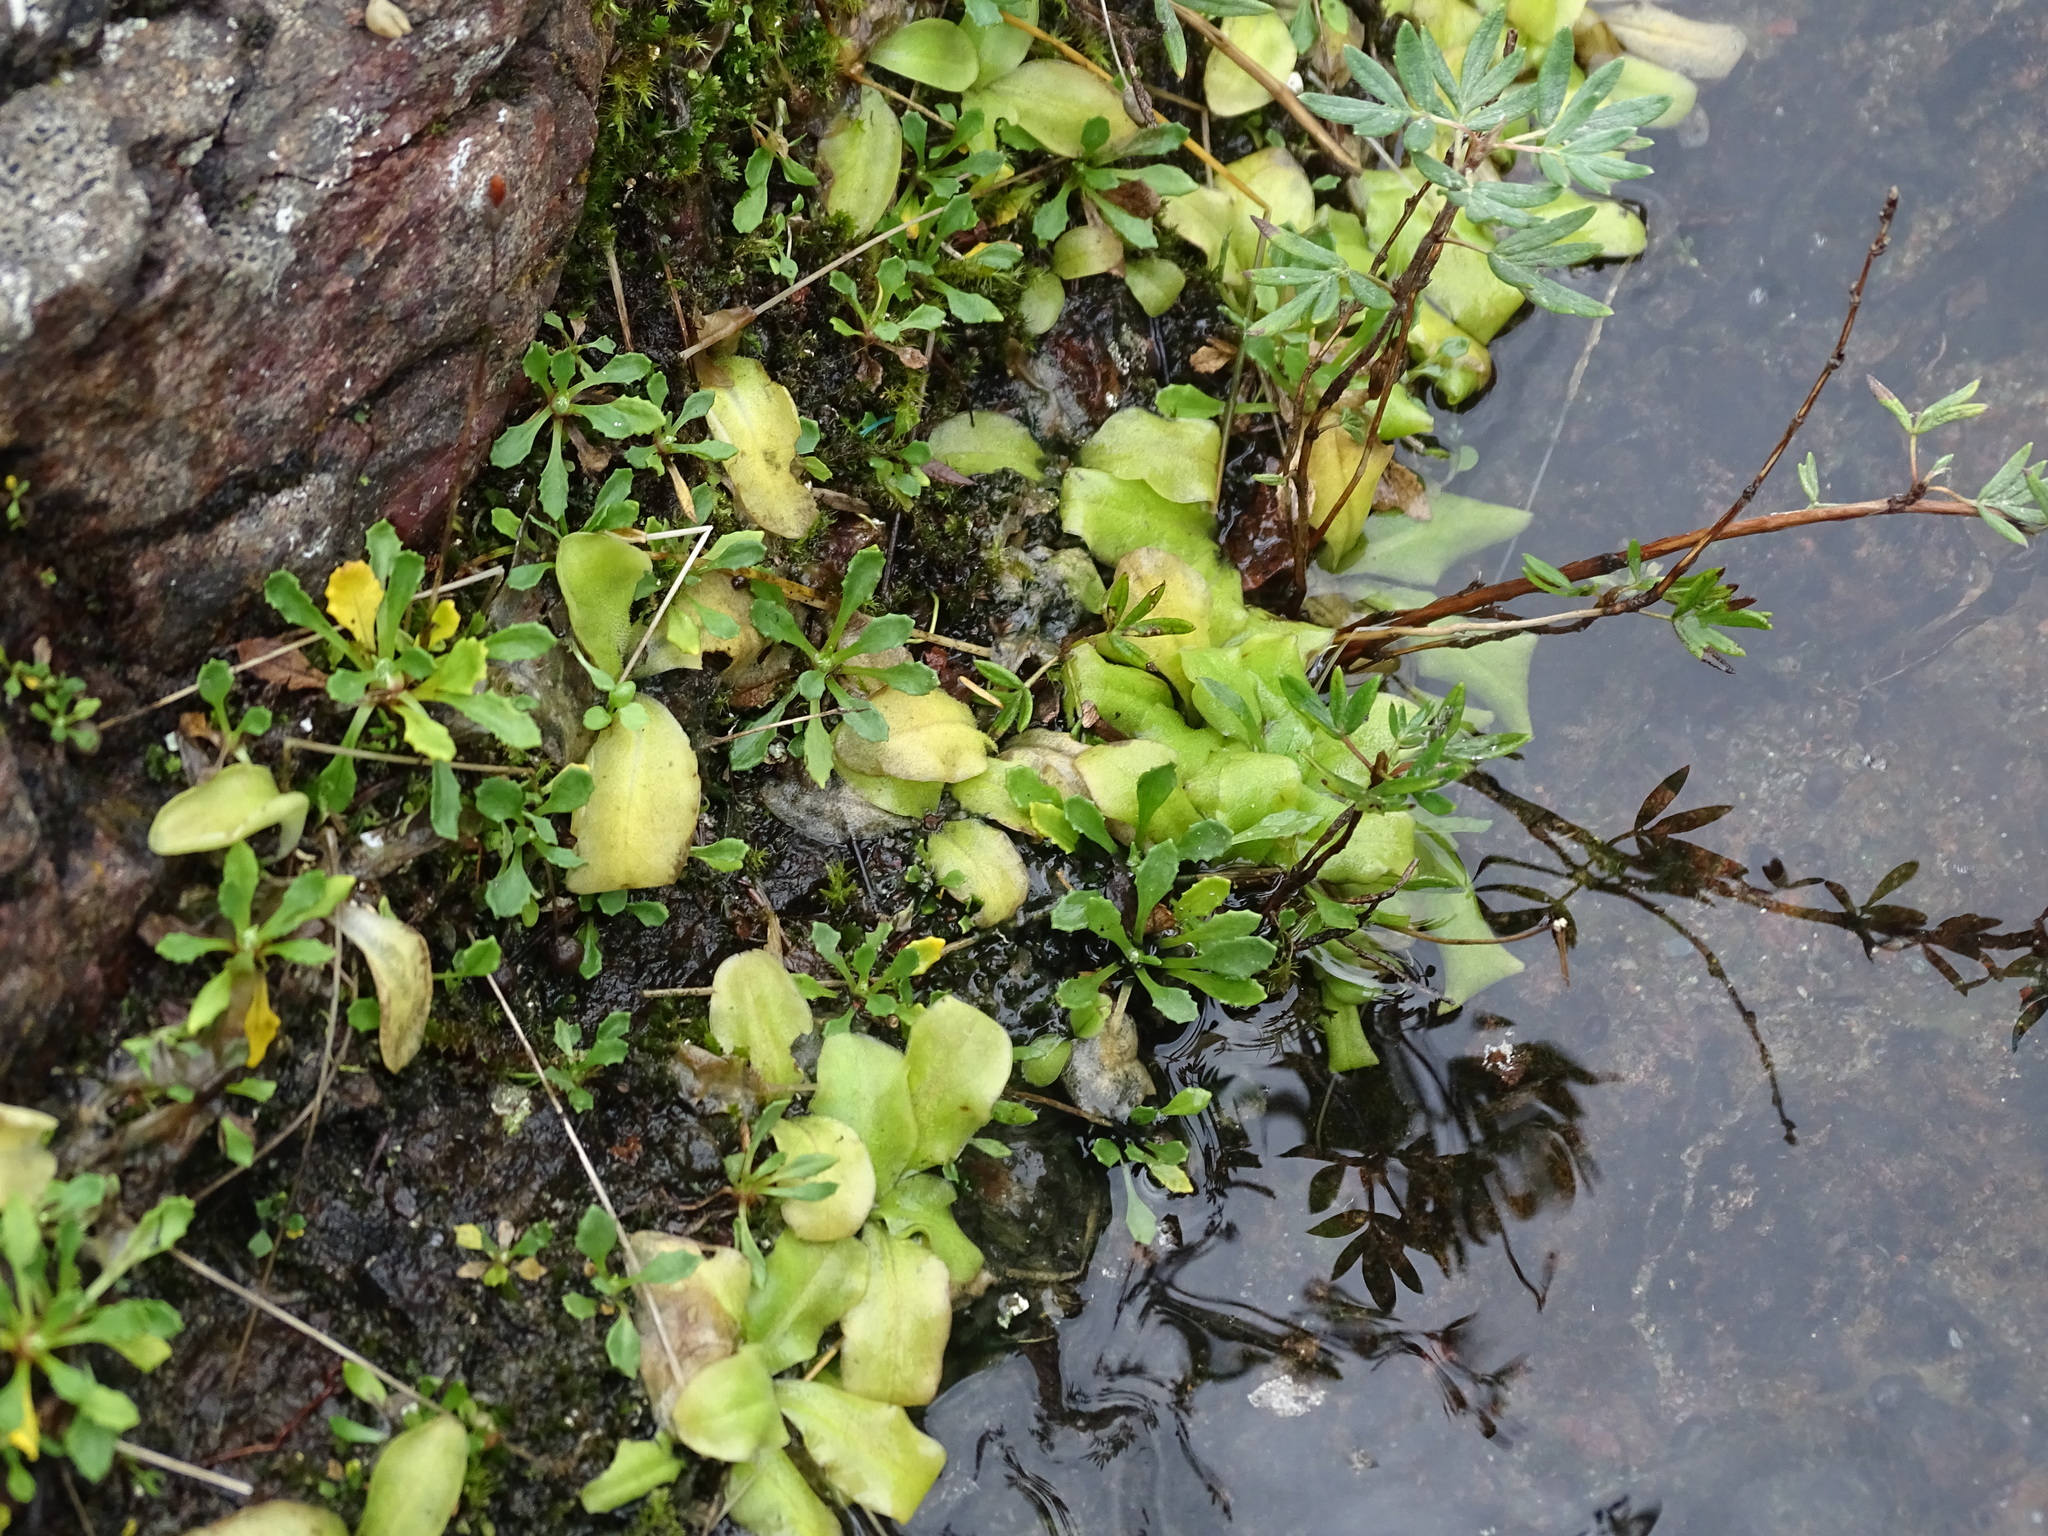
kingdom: Plantae
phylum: Tracheophyta
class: Magnoliopsida
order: Lamiales
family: Lentibulariaceae
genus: Pinguicula
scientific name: Pinguicula vulgaris
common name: Common butterwort
